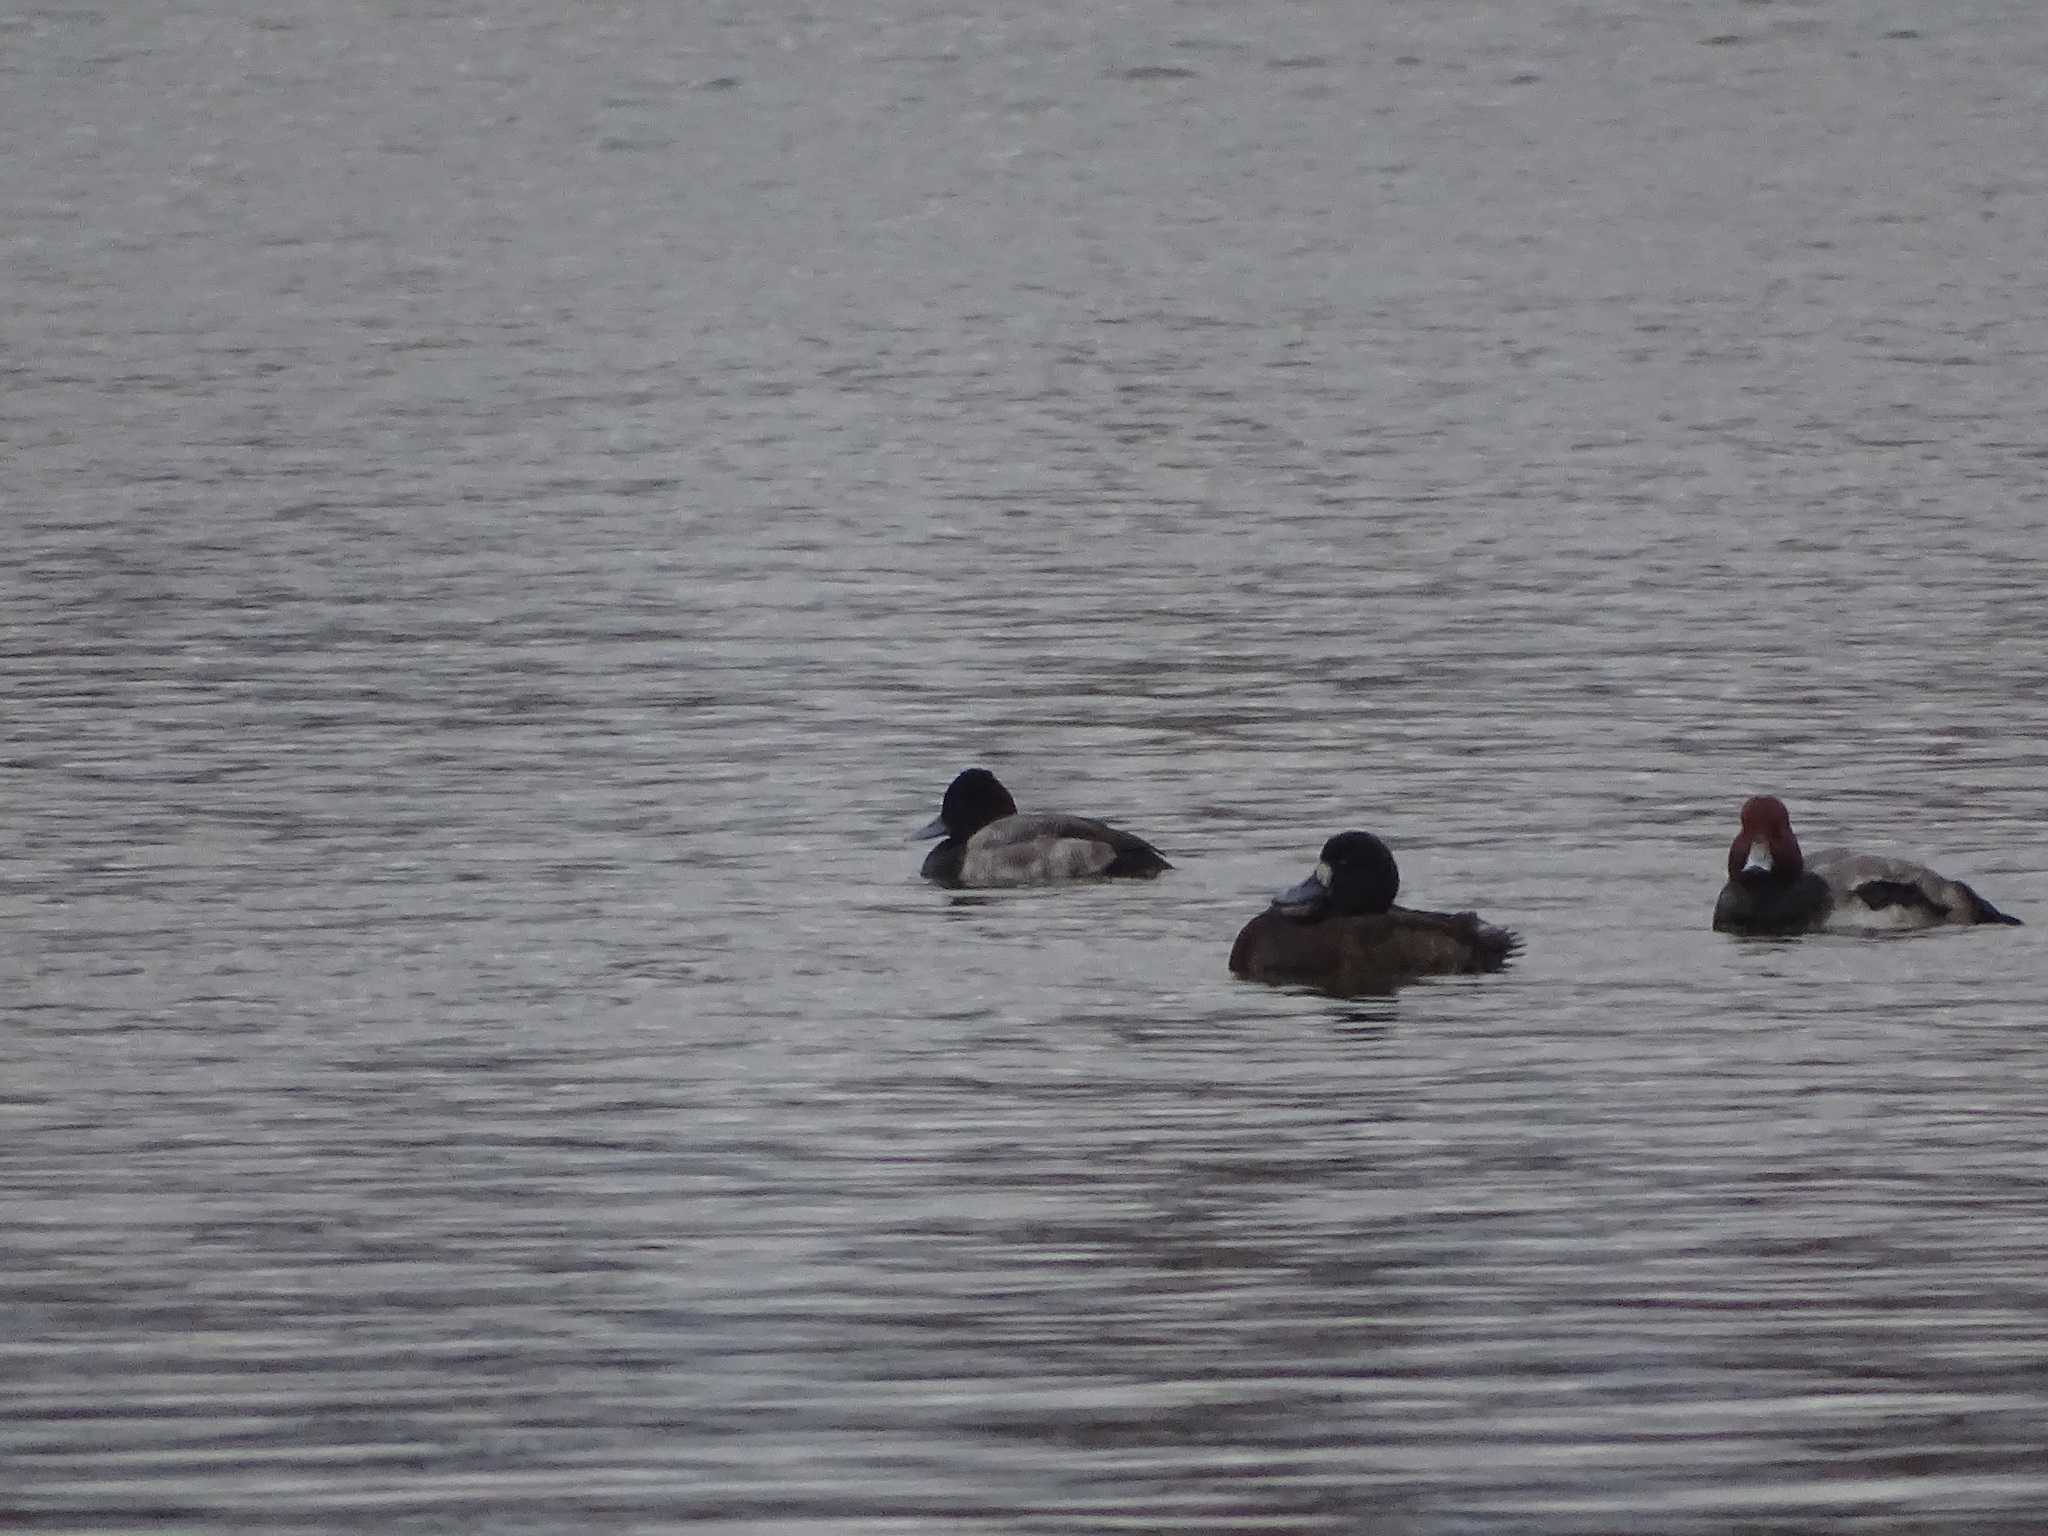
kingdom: Animalia
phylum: Chordata
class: Aves
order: Anseriformes
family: Anatidae
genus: Aythya
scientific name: Aythya affinis
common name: Lesser scaup
